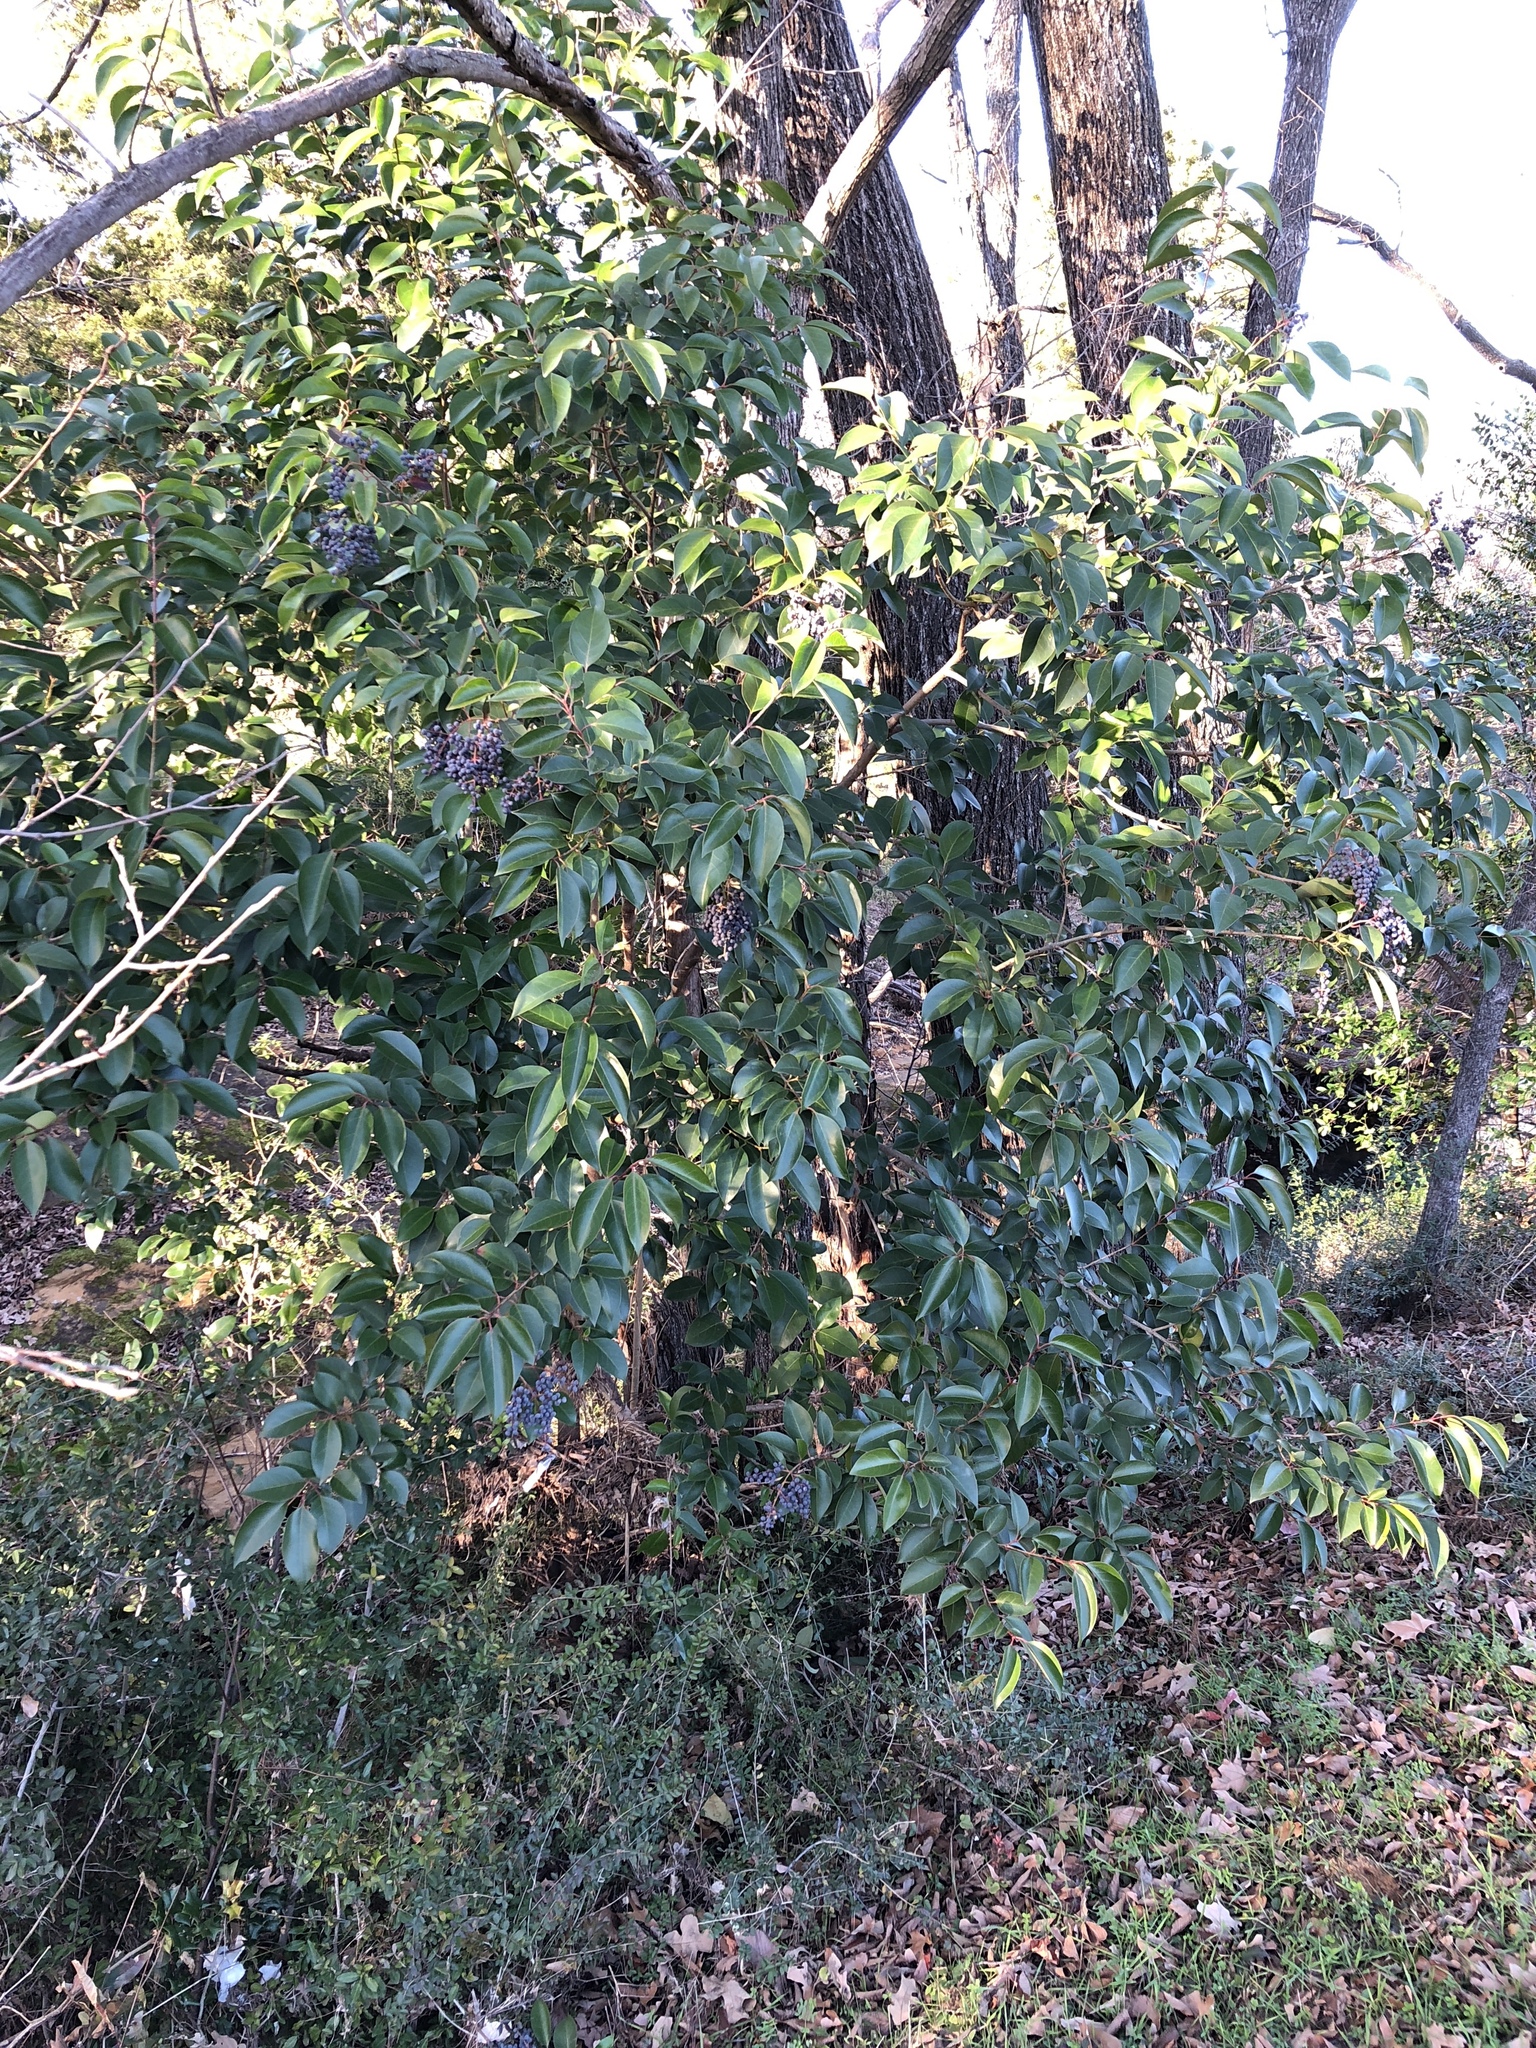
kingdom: Plantae
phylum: Tracheophyta
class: Magnoliopsida
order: Lamiales
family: Oleaceae
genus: Ligustrum
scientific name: Ligustrum lucidum
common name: Glossy privet
